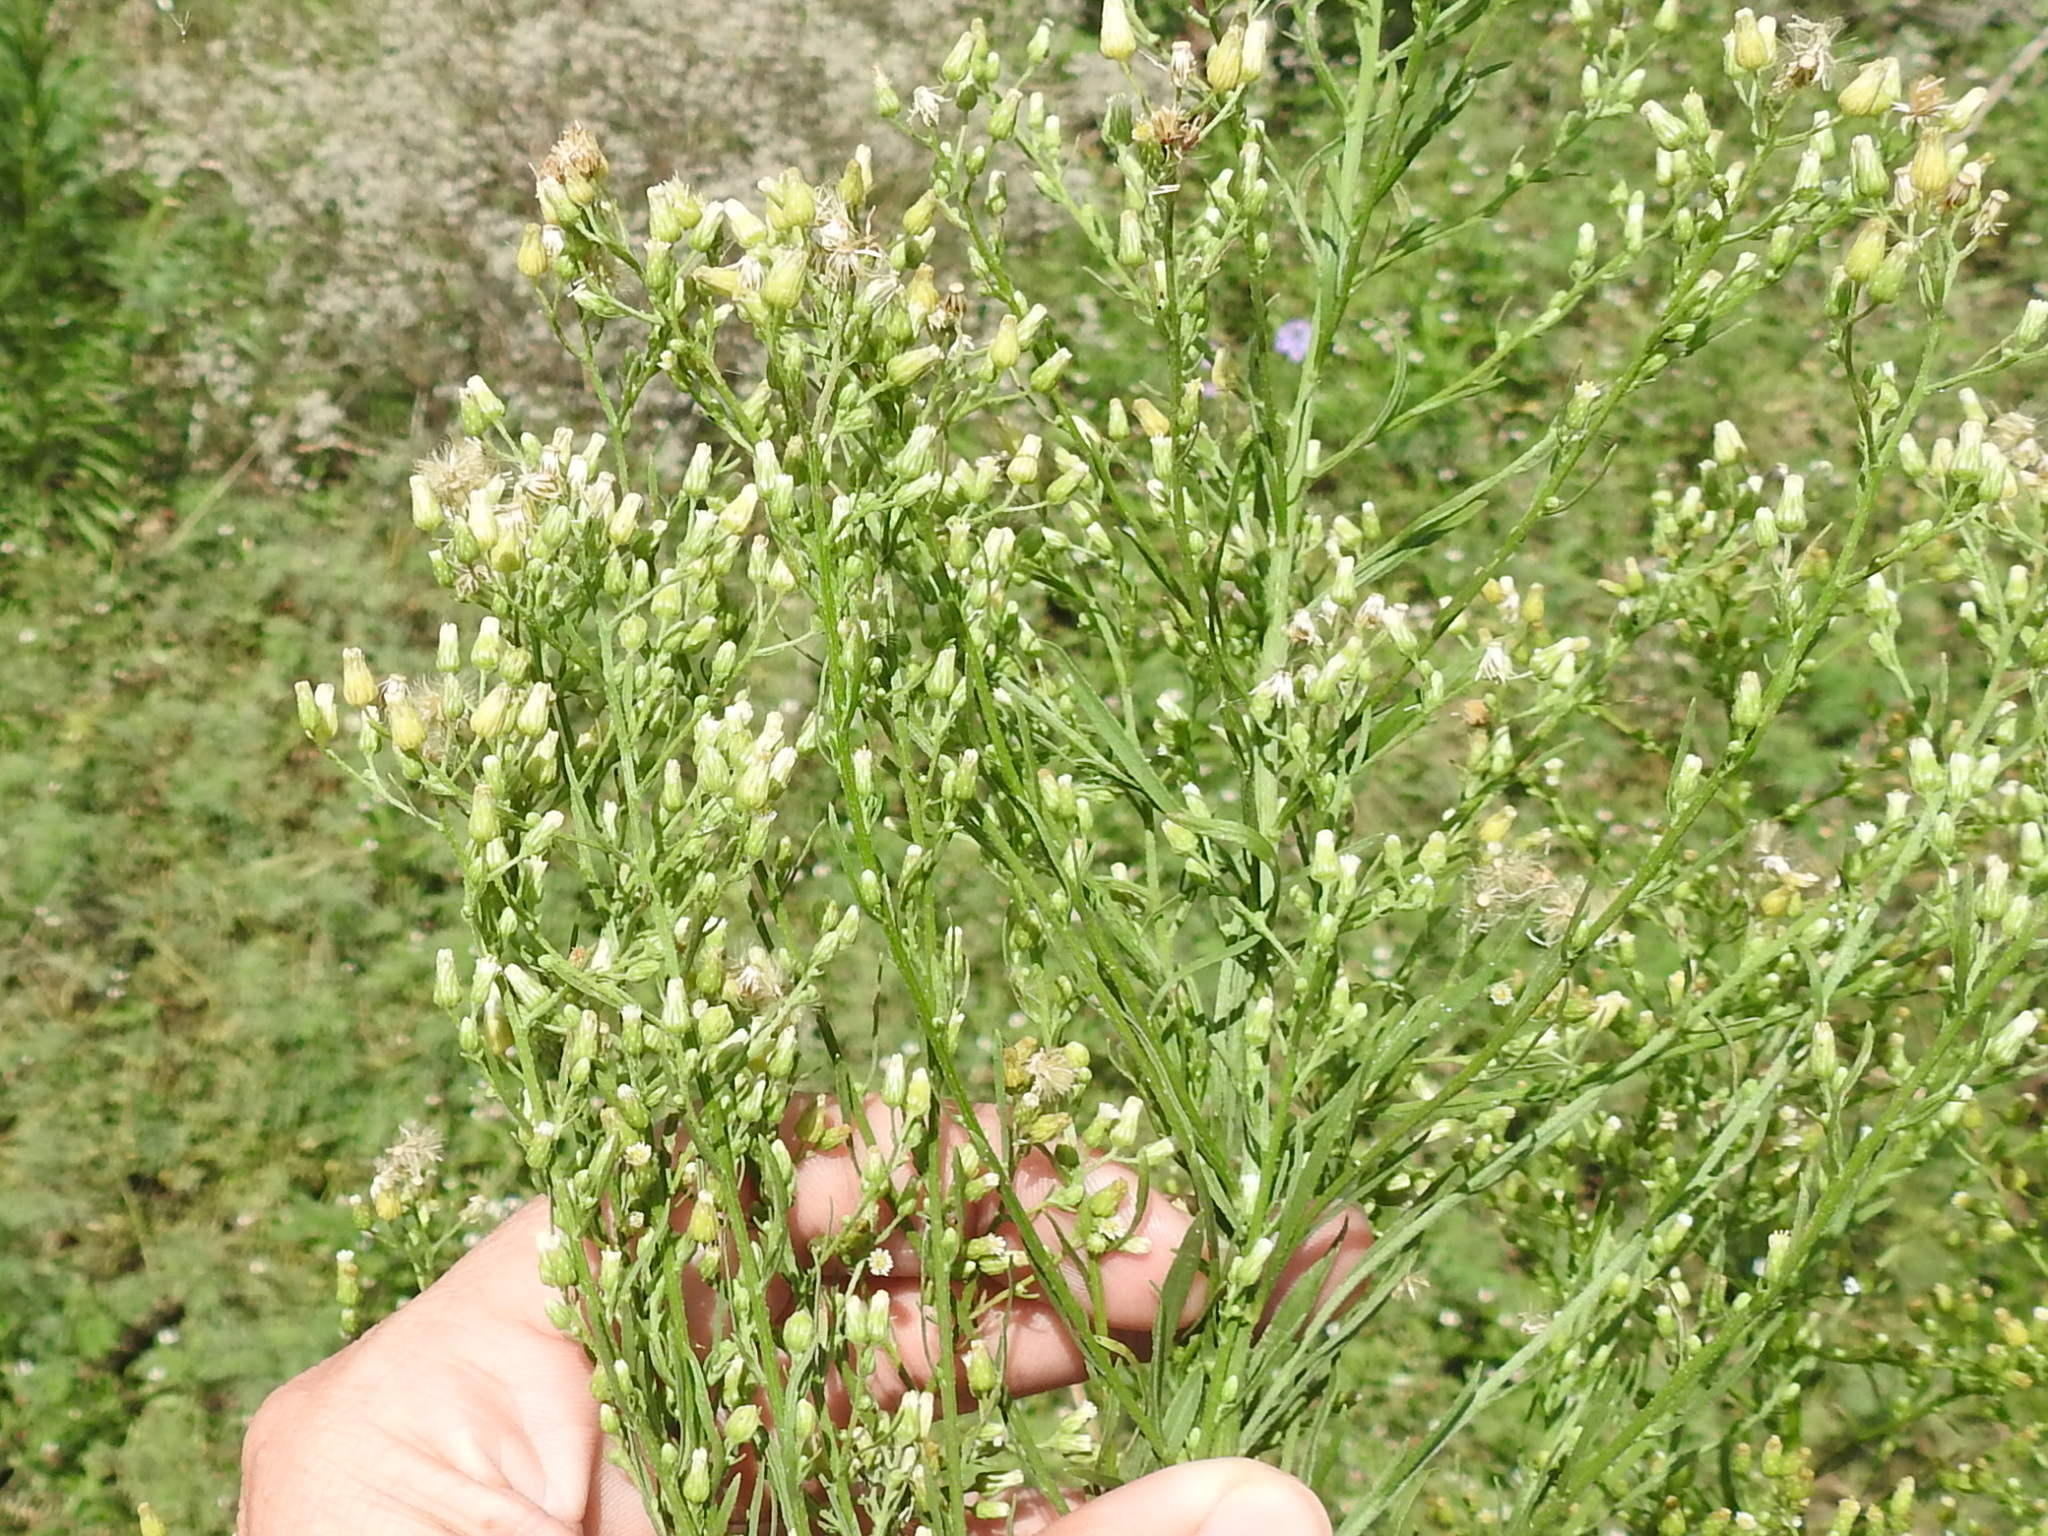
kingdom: Plantae
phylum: Tracheophyta
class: Magnoliopsida
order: Asterales
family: Asteraceae
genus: Erigeron
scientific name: Erigeron canadensis
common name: Canadian fleabane
